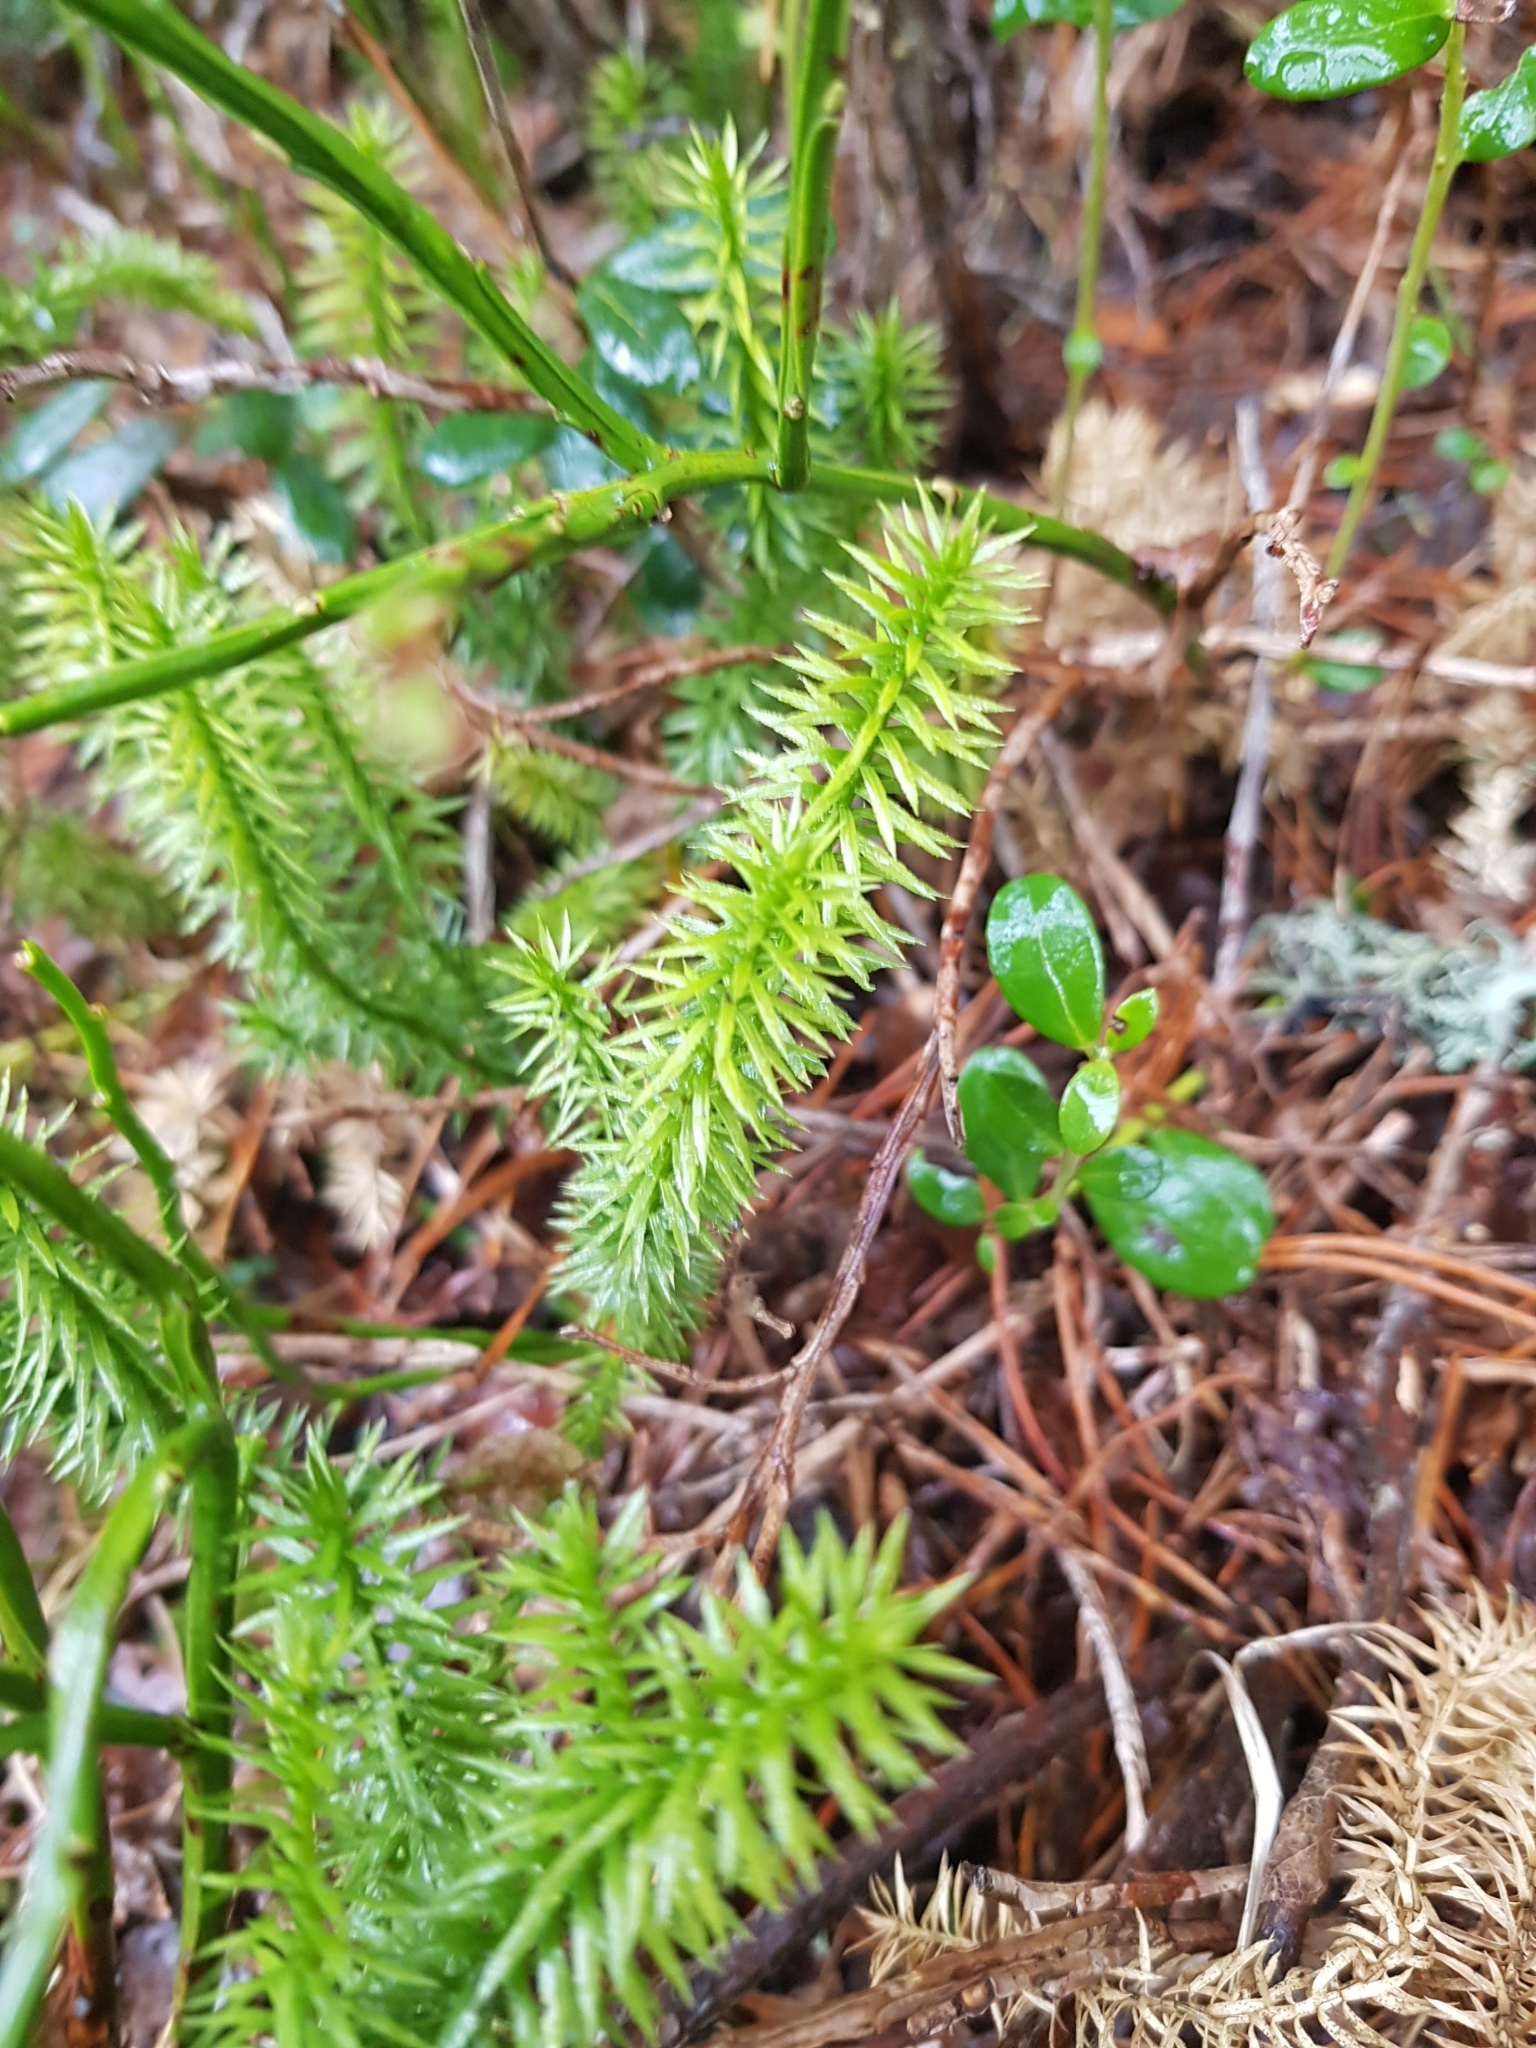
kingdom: Plantae
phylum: Tracheophyta
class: Lycopodiopsida
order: Lycopodiales
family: Lycopodiaceae
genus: Spinulum
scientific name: Spinulum annotinum
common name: Interrupted club-moss
